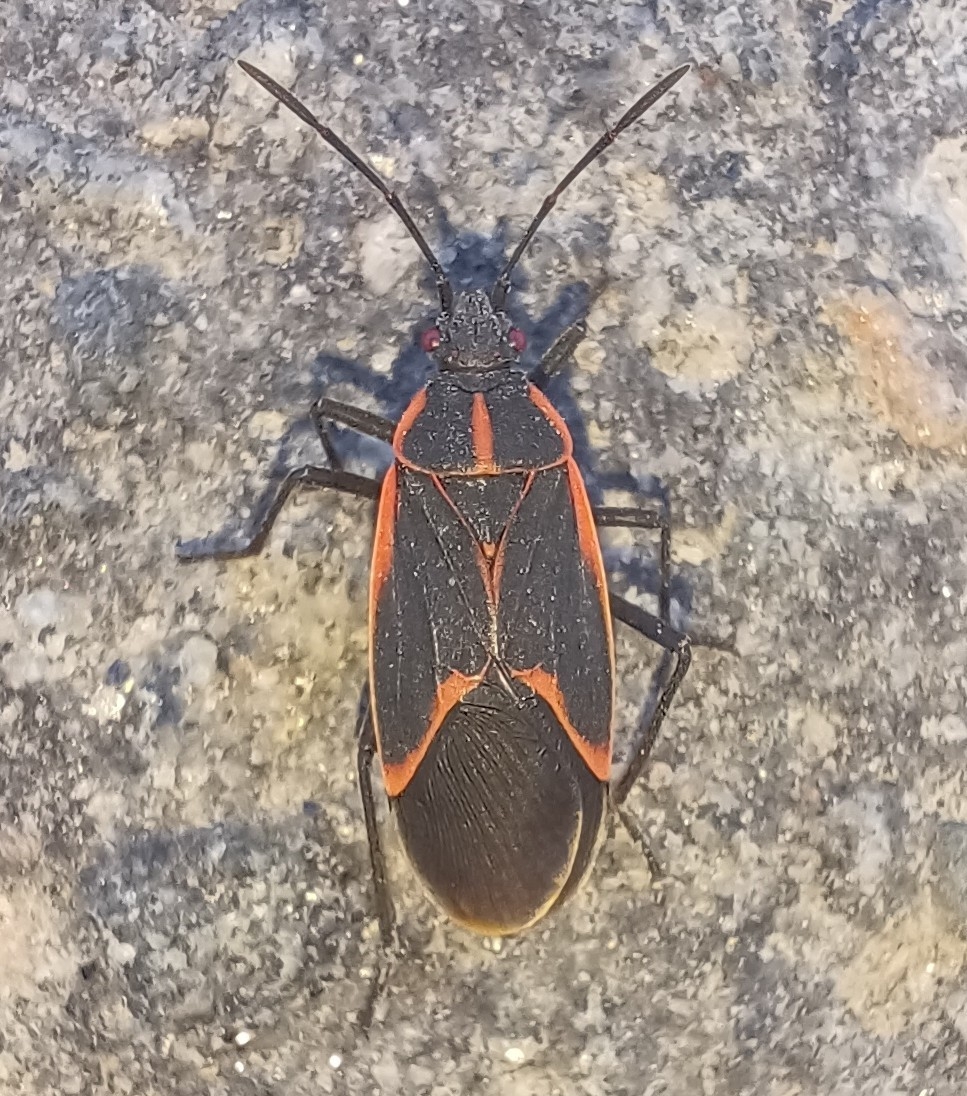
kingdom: Animalia
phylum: Arthropoda
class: Insecta
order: Hemiptera
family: Rhopalidae
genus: Boisea
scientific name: Boisea trivittata
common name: Boxelder bug
